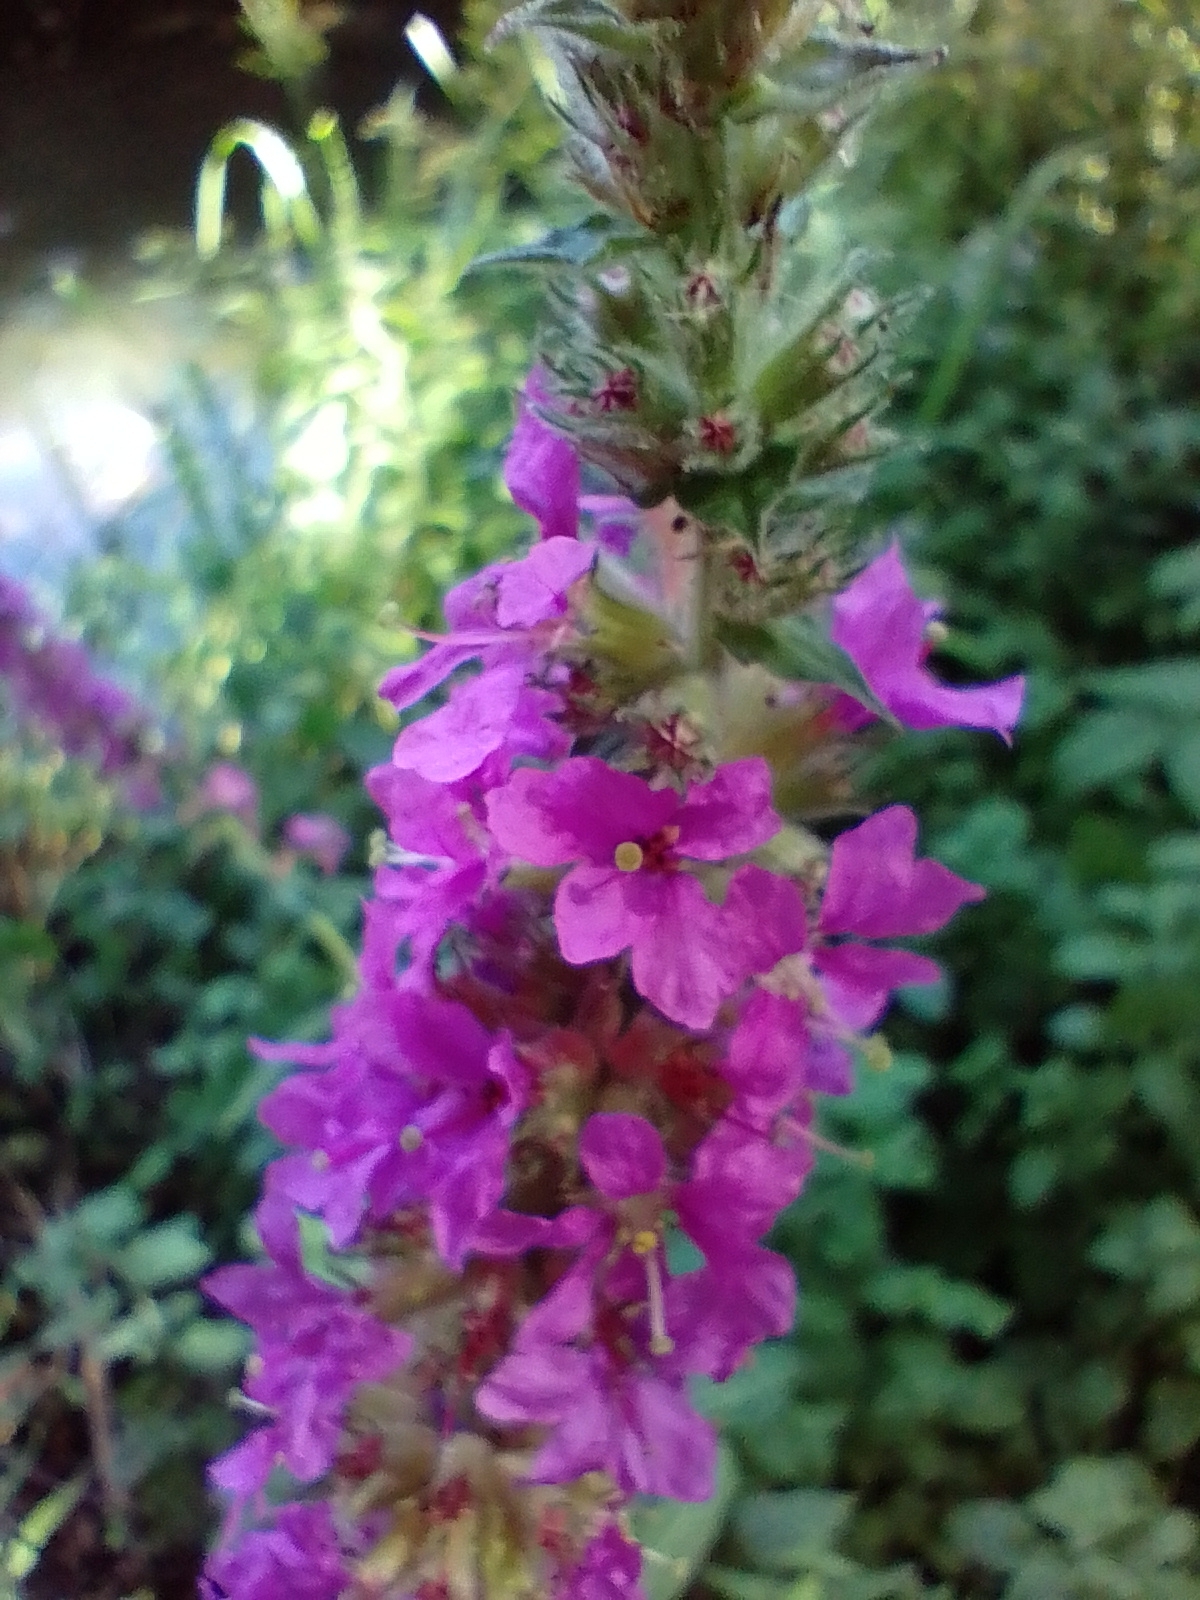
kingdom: Plantae
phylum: Tracheophyta
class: Magnoliopsida
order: Myrtales
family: Lythraceae
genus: Lythrum
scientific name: Lythrum salicaria
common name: Purple loosestrife
